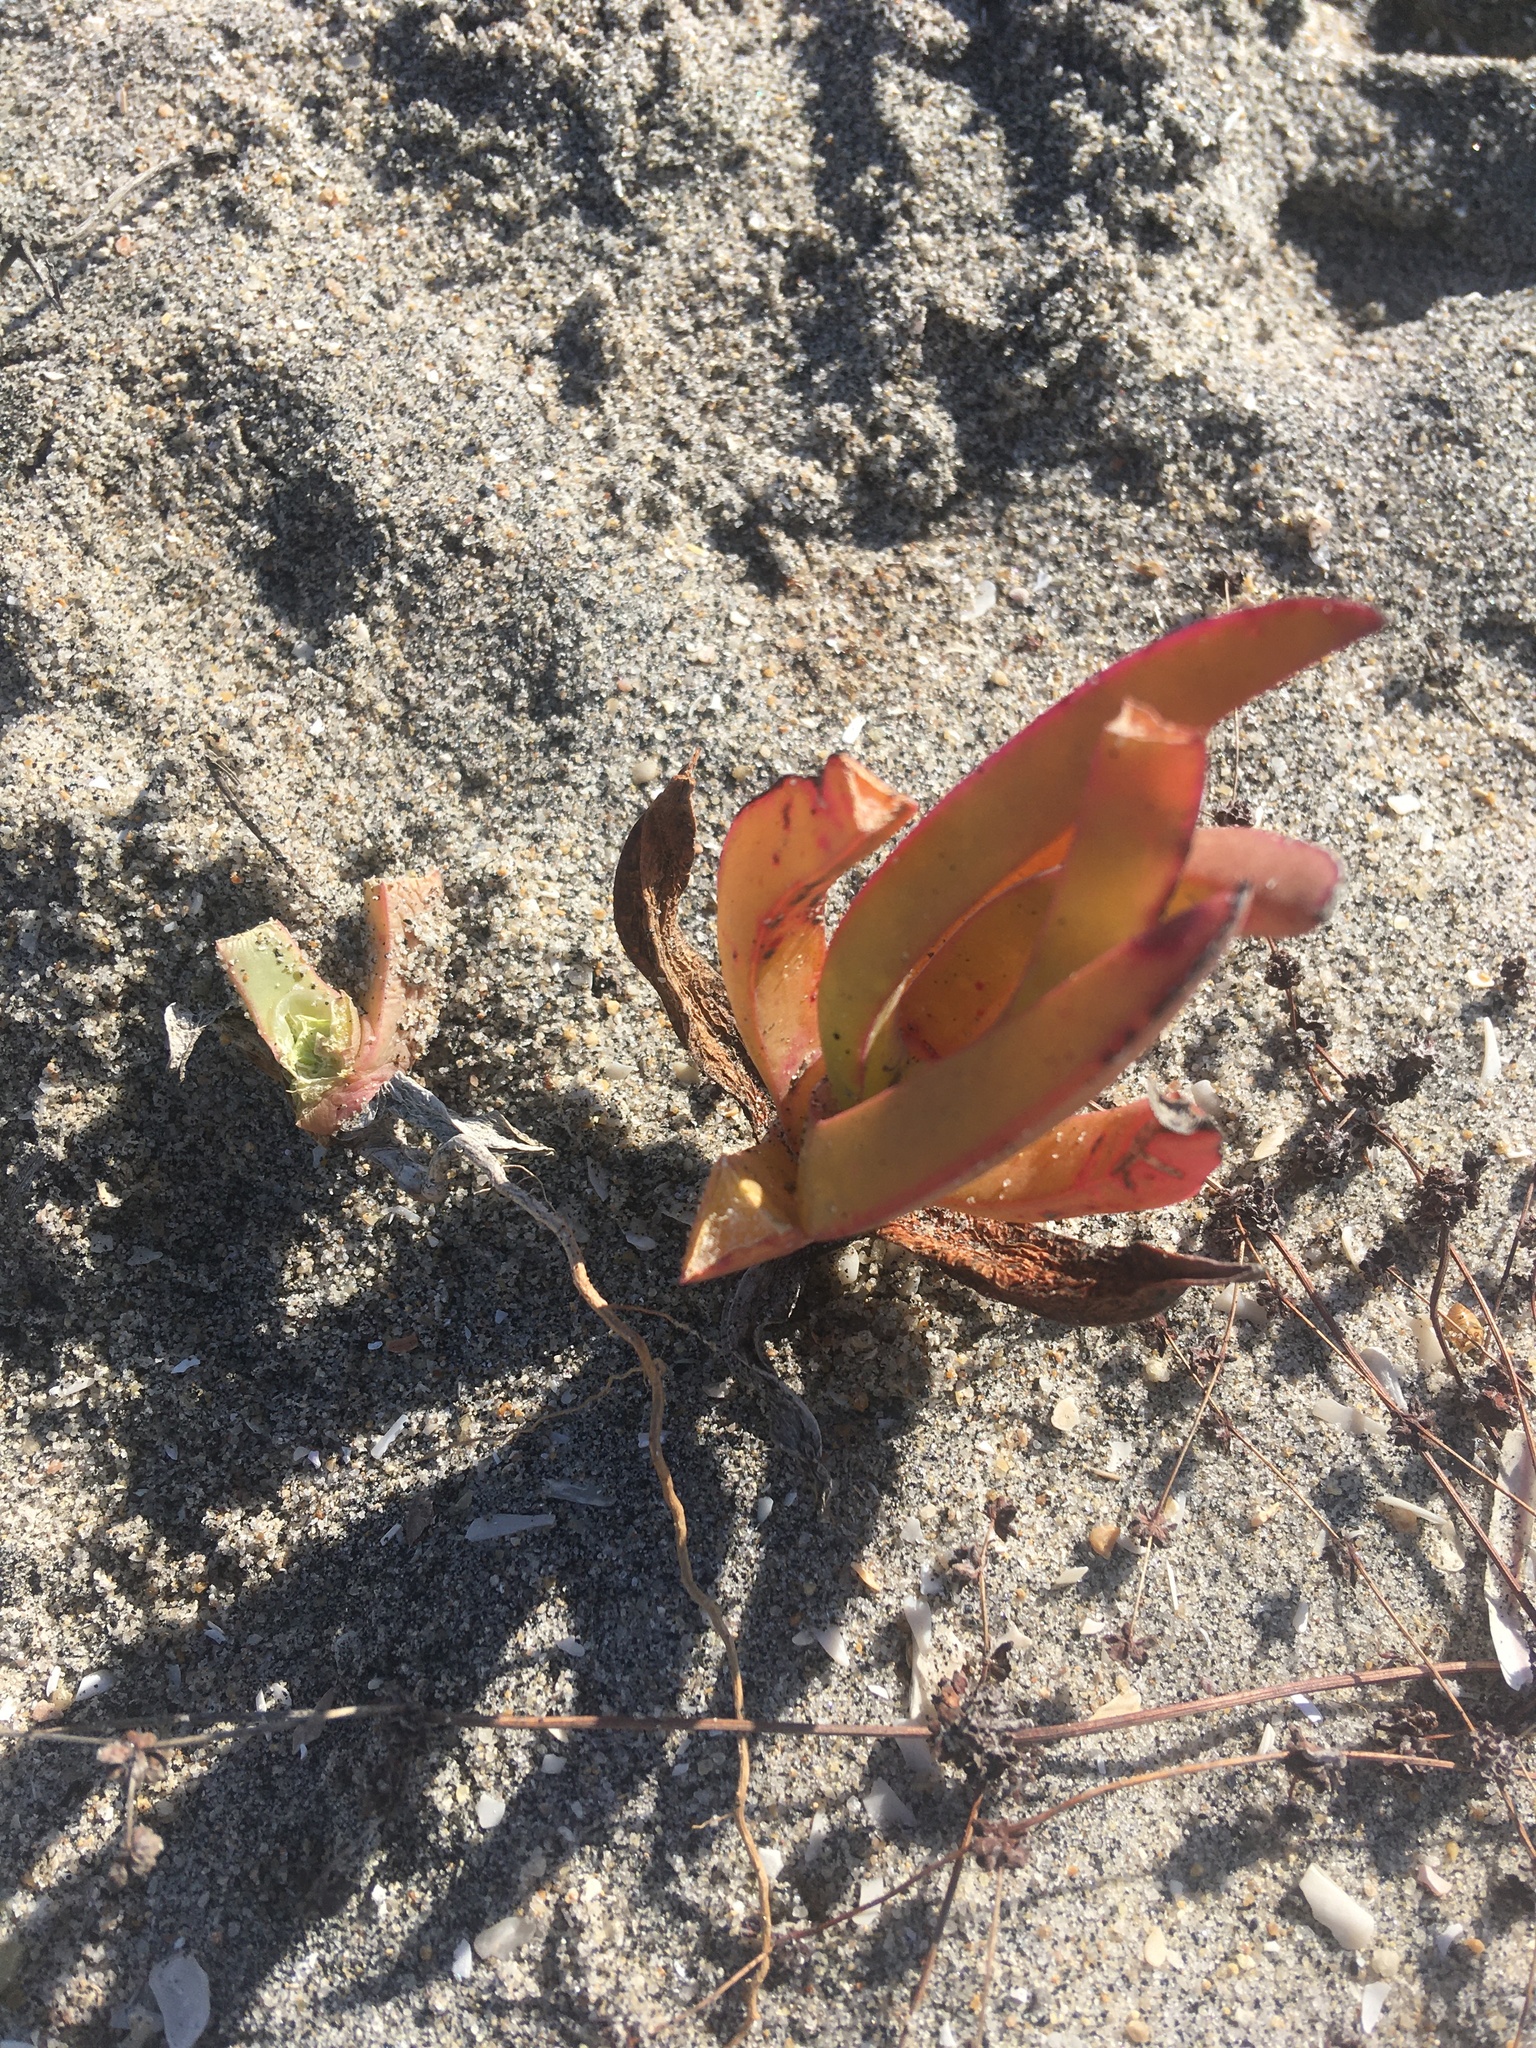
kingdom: Plantae
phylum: Tracheophyta
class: Magnoliopsida
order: Caryophyllales
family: Aizoaceae
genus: Carpobrotus
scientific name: Carpobrotus edulis
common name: Hottentot-fig
